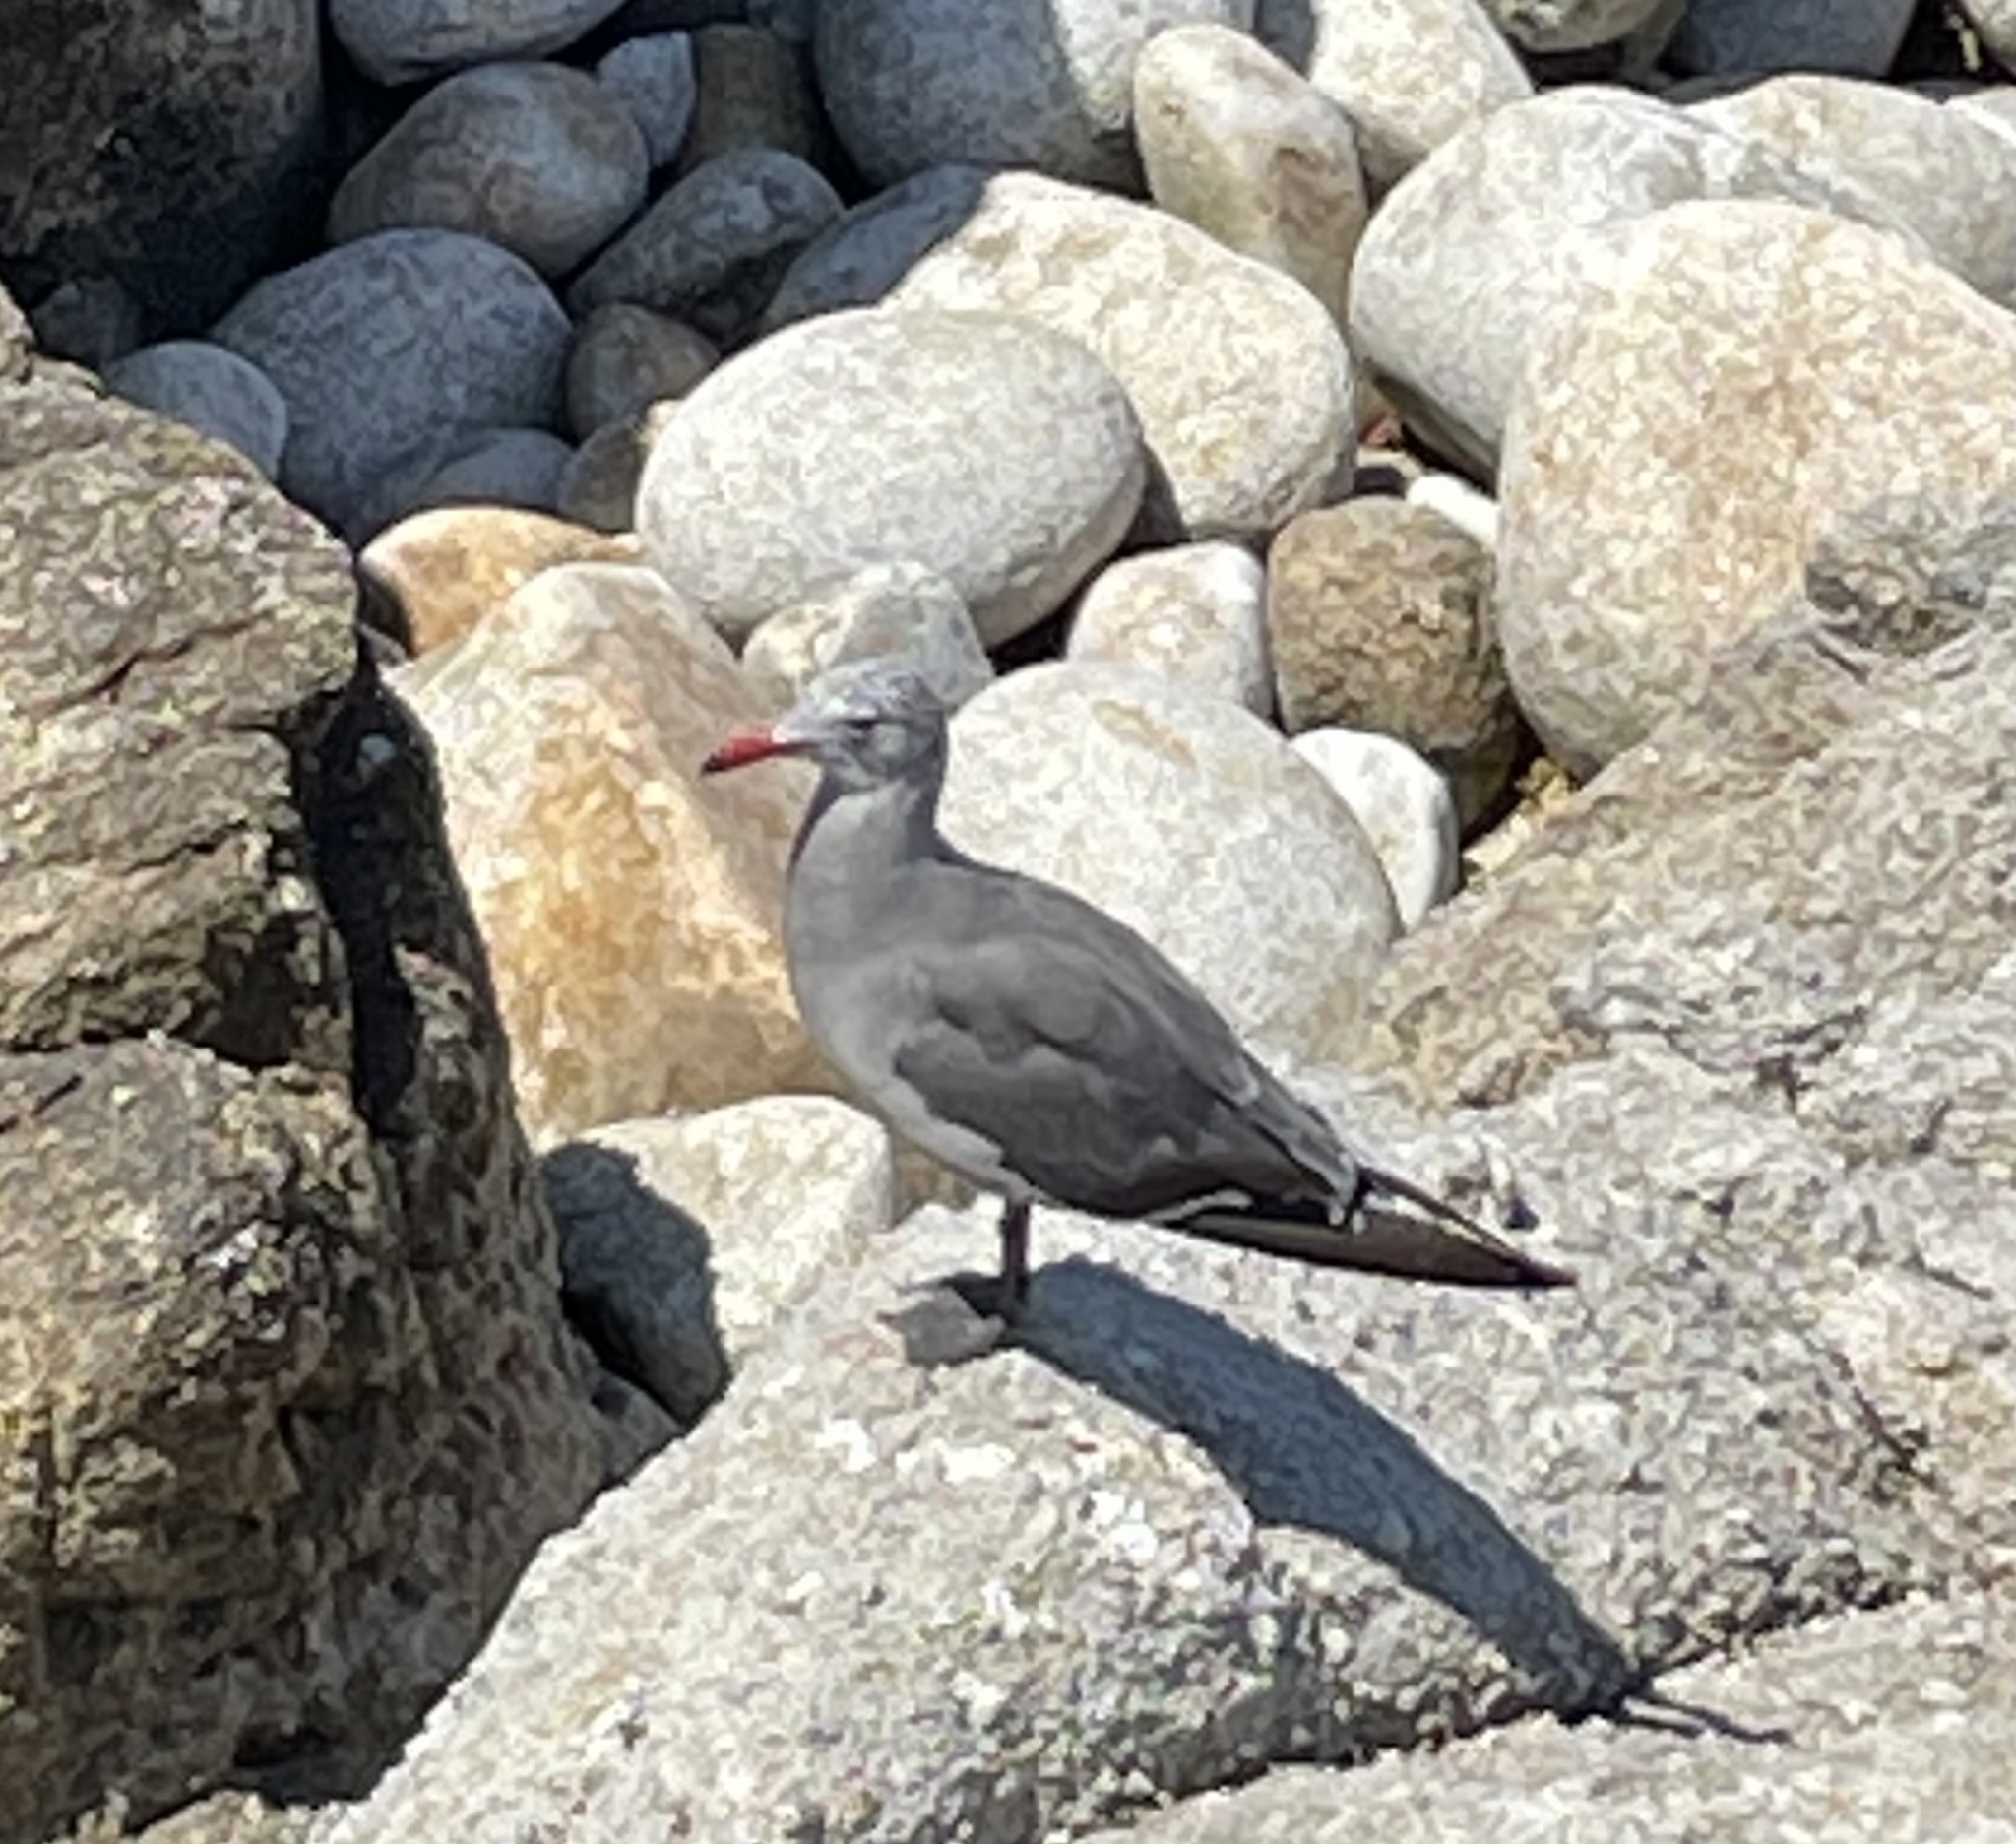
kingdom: Animalia
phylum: Chordata
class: Aves
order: Charadriiformes
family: Laridae
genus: Larus
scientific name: Larus heermanni
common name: Heermann's gull
